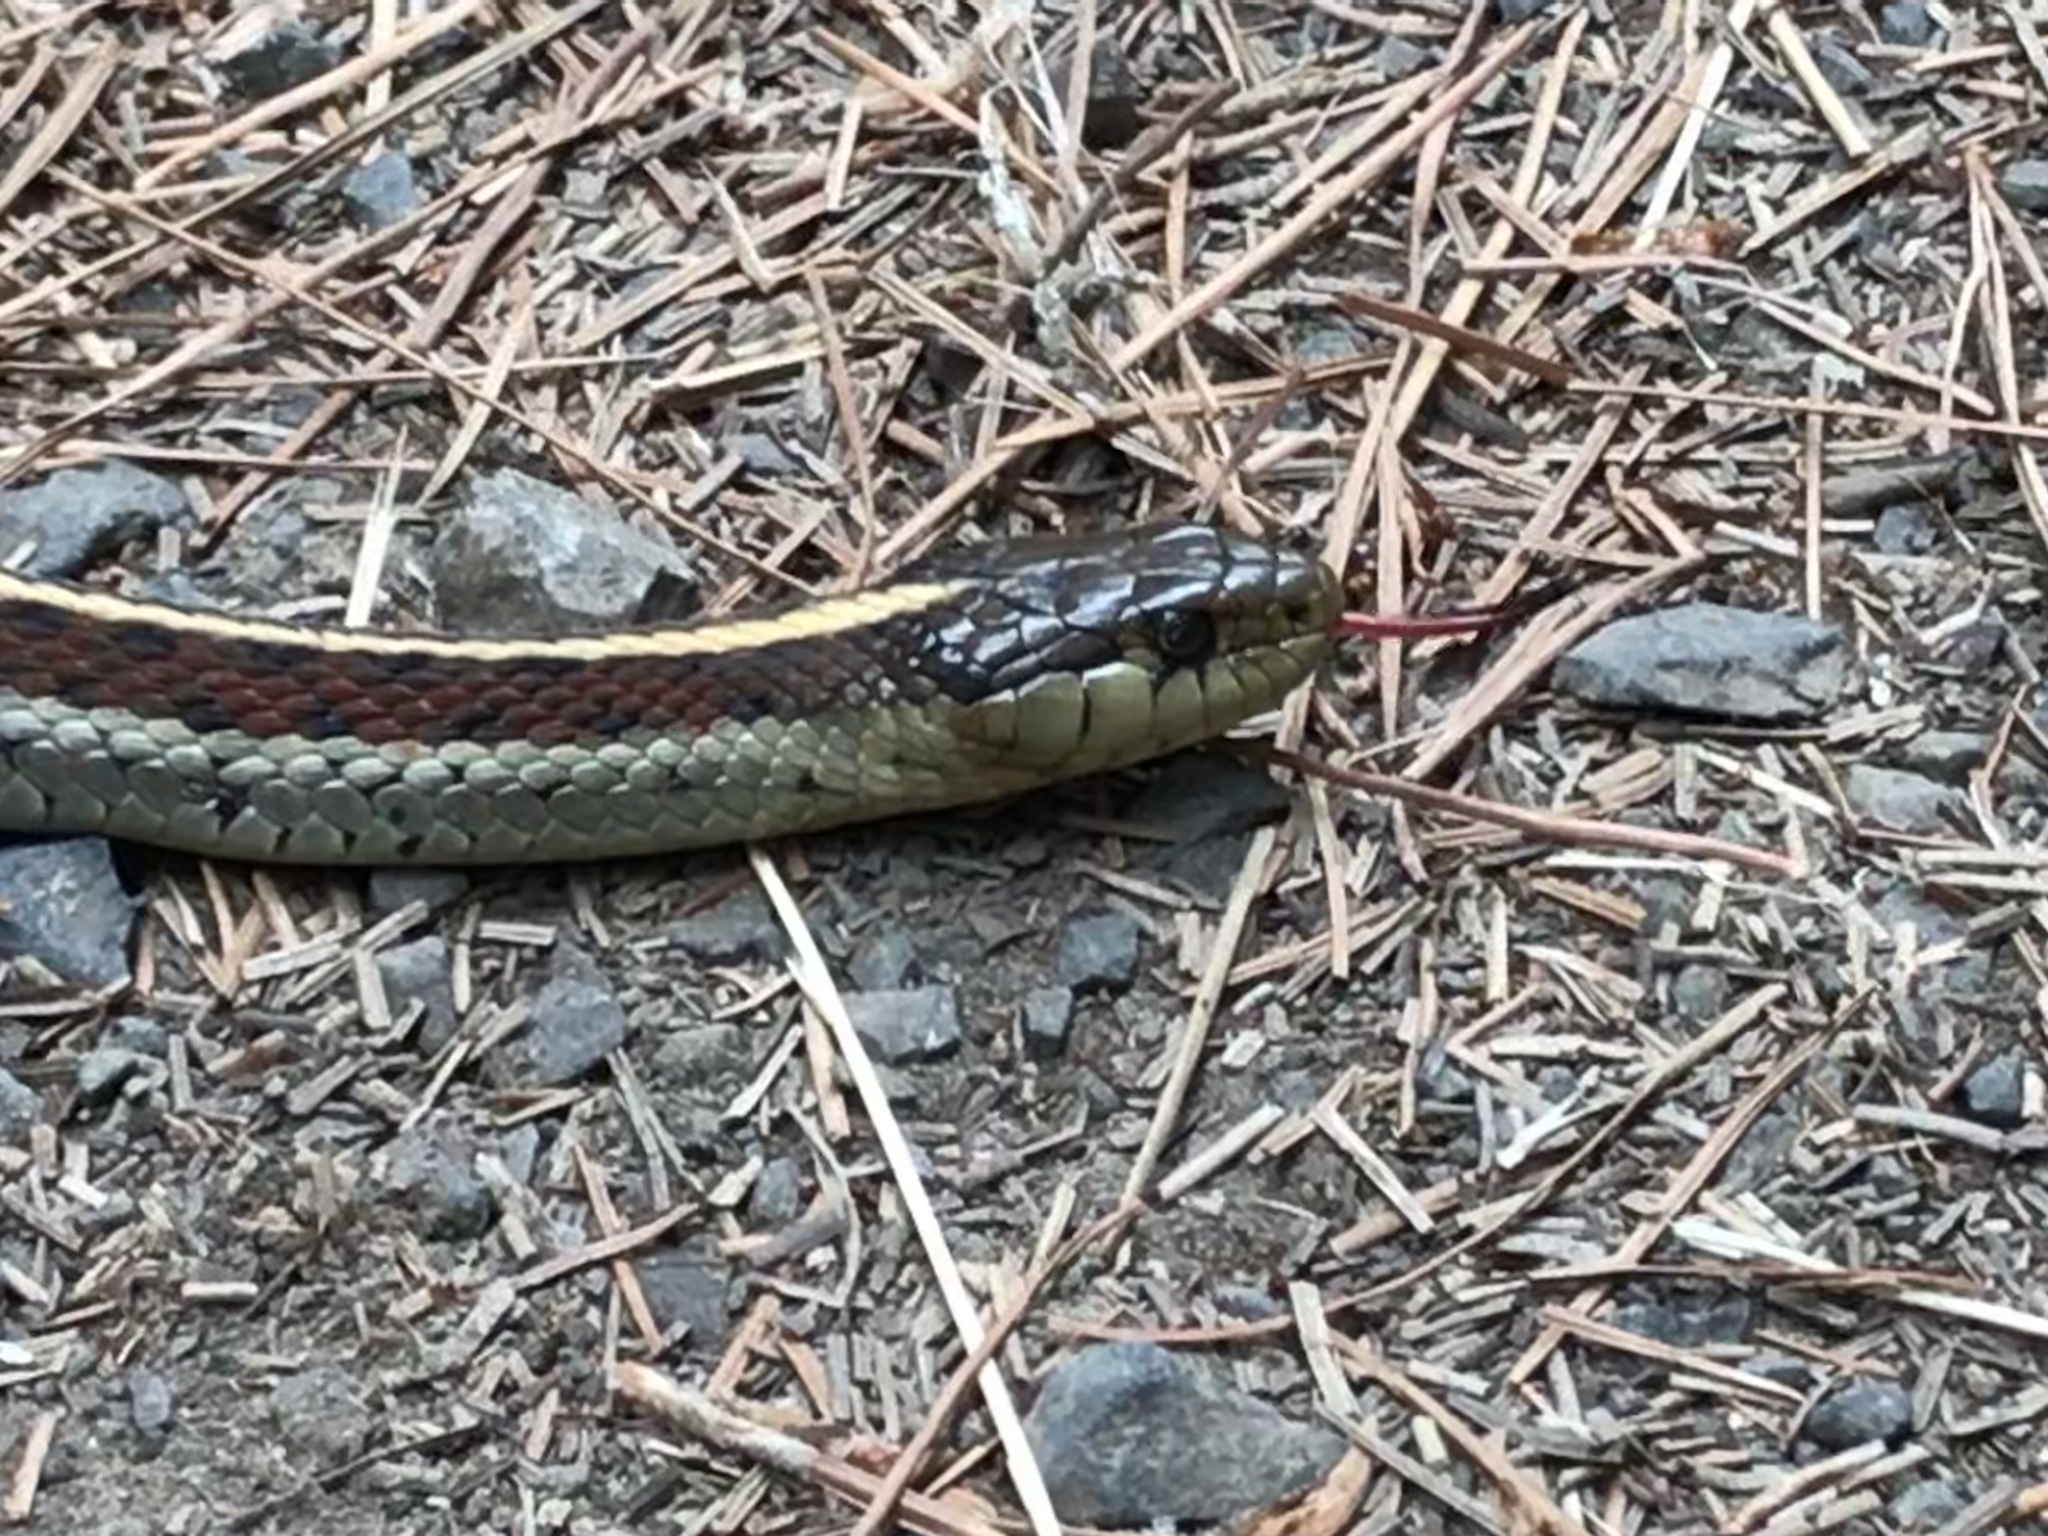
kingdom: Animalia
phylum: Chordata
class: Squamata
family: Colubridae
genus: Thamnophis
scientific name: Thamnophis elegans
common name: Western terrestrial garter snake
